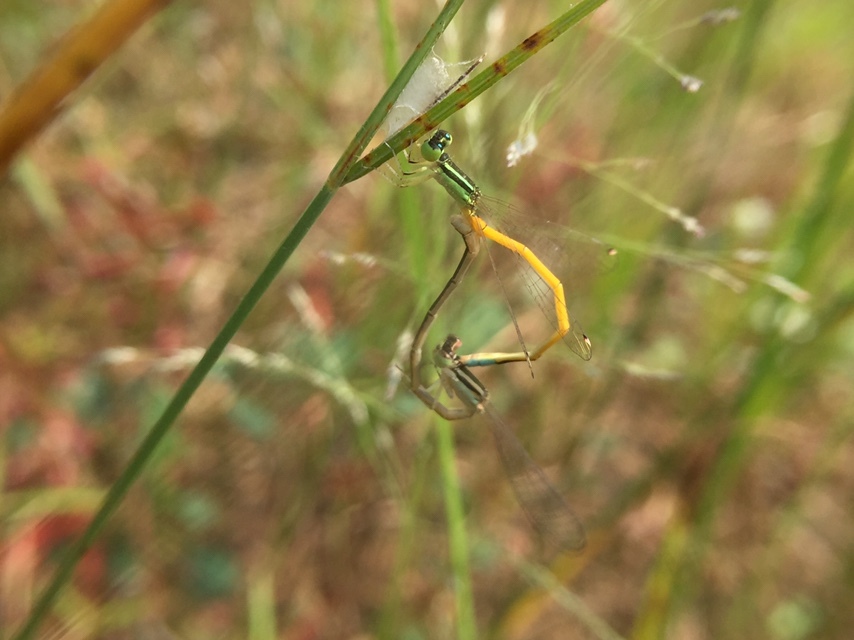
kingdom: Animalia
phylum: Arthropoda
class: Insecta
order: Odonata
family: Coenagrionidae
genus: Ischnura
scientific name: Ischnura rubilio
